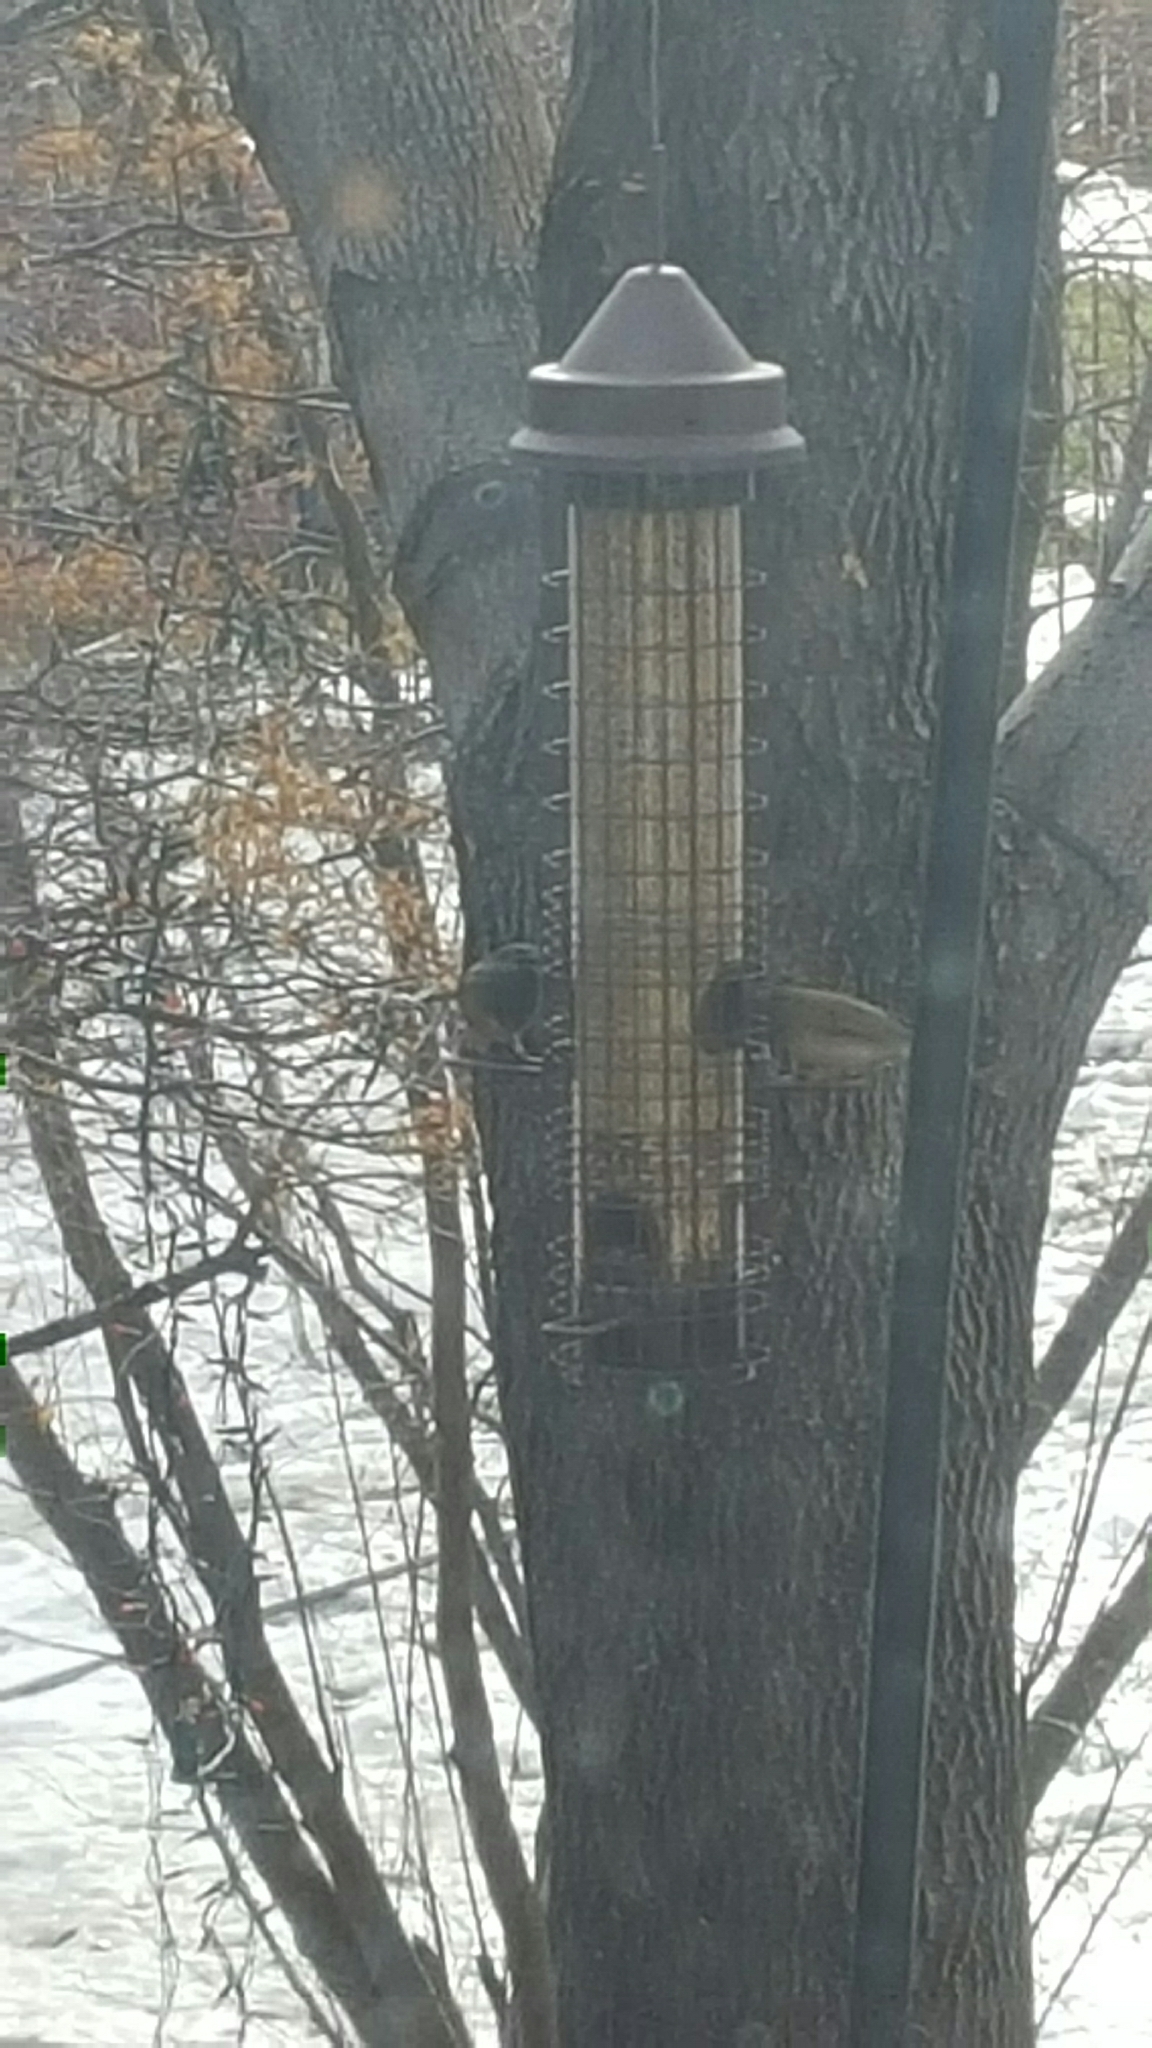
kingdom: Animalia
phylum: Chordata
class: Aves
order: Passeriformes
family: Passerellidae
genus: Junco
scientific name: Junco hyemalis
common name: Dark-eyed junco
